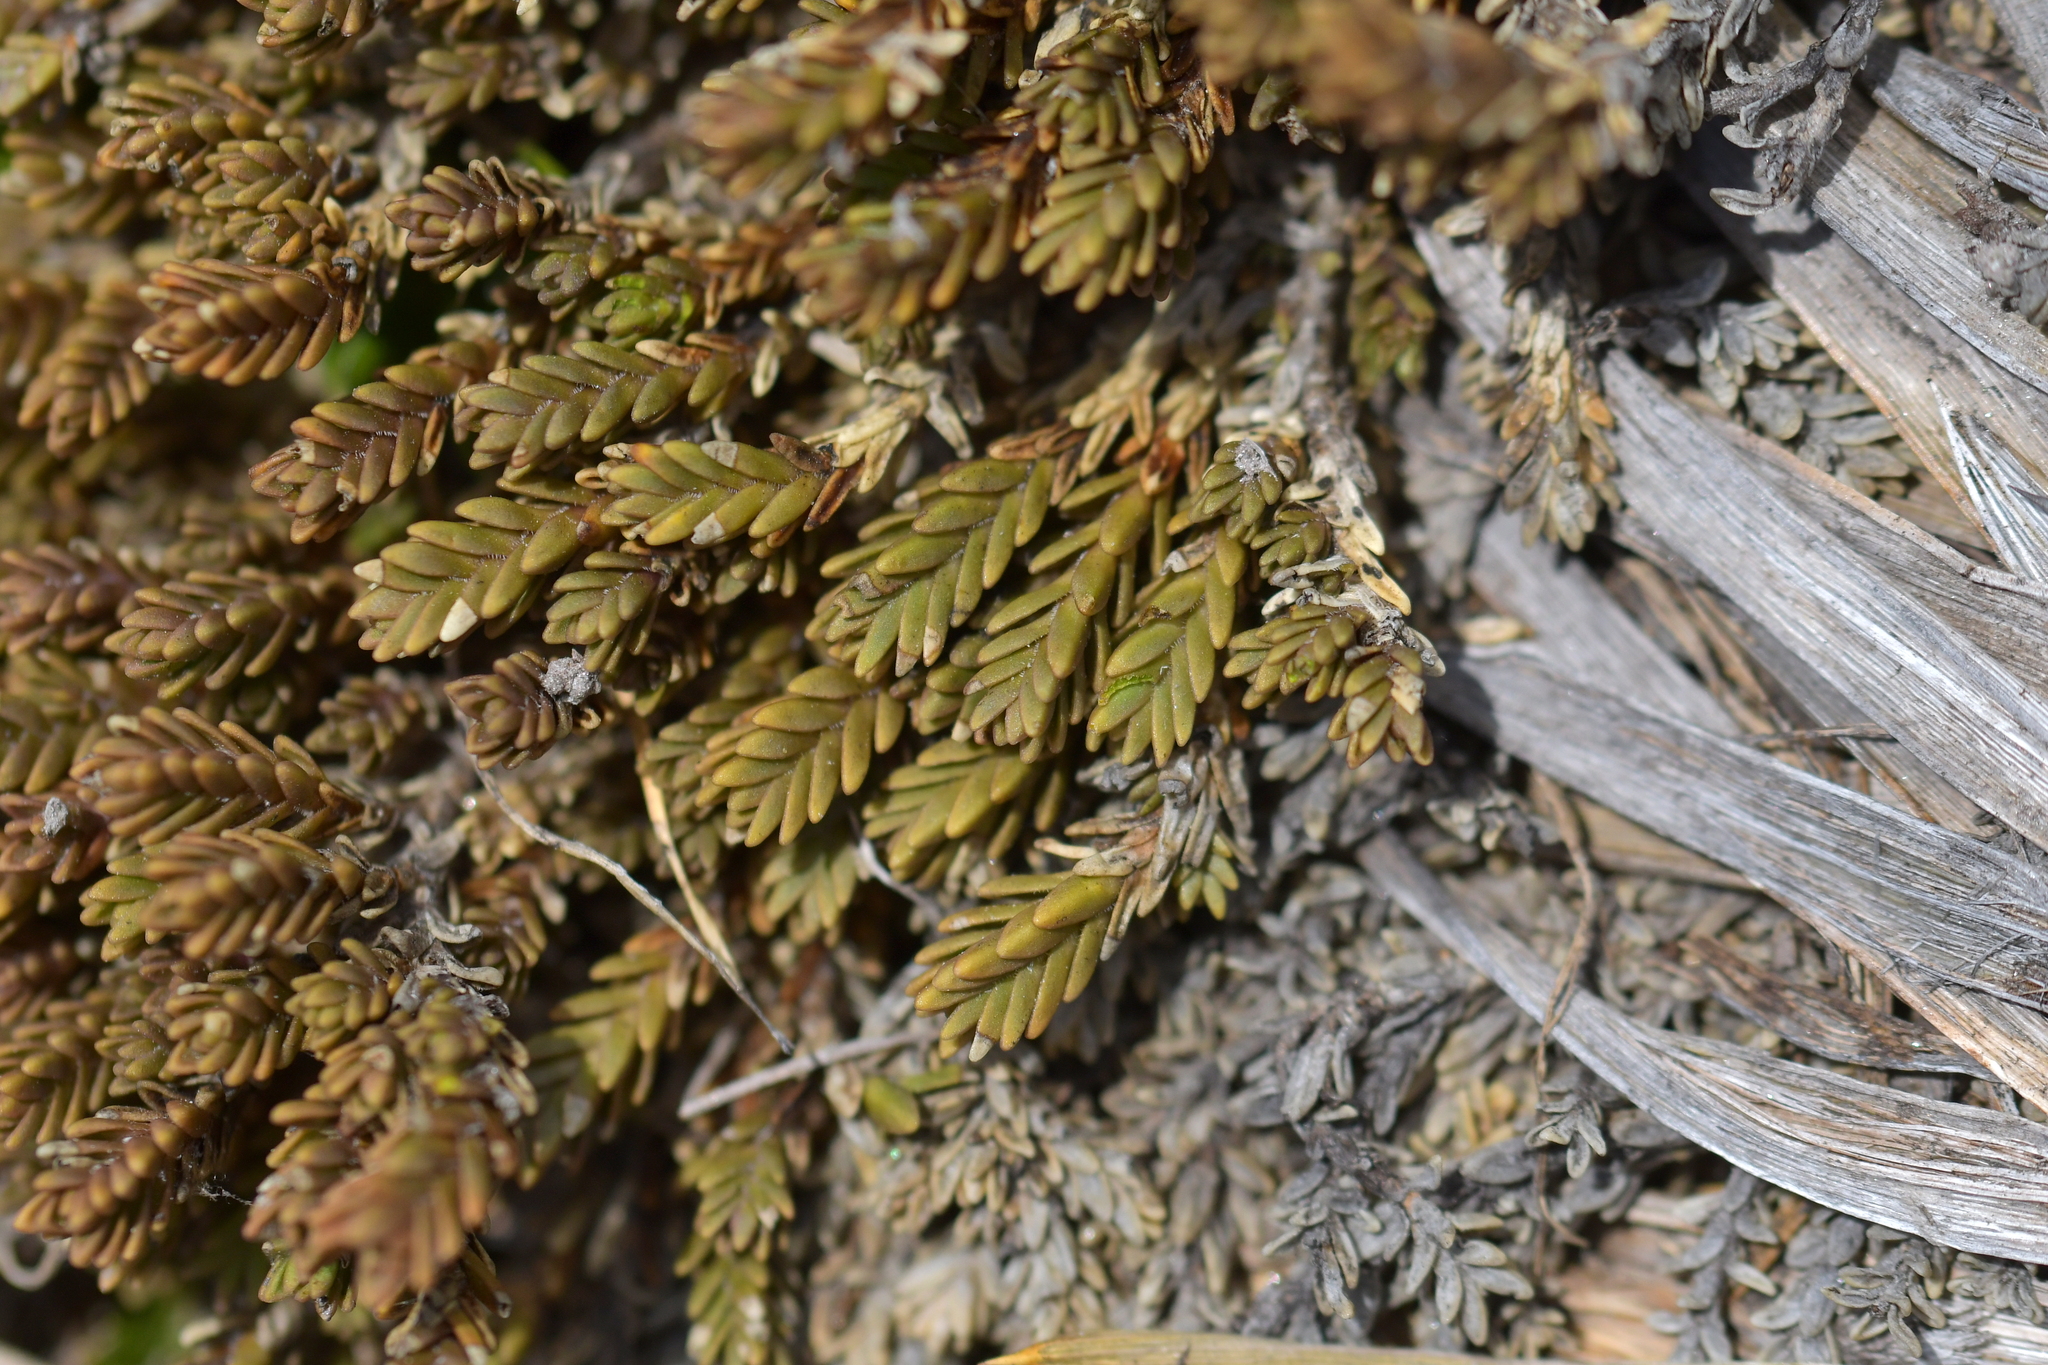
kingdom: Plantae
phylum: Tracheophyta
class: Magnoliopsida
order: Lamiales
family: Plantaginaceae
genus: Veronica
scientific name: Veronica densifolia
